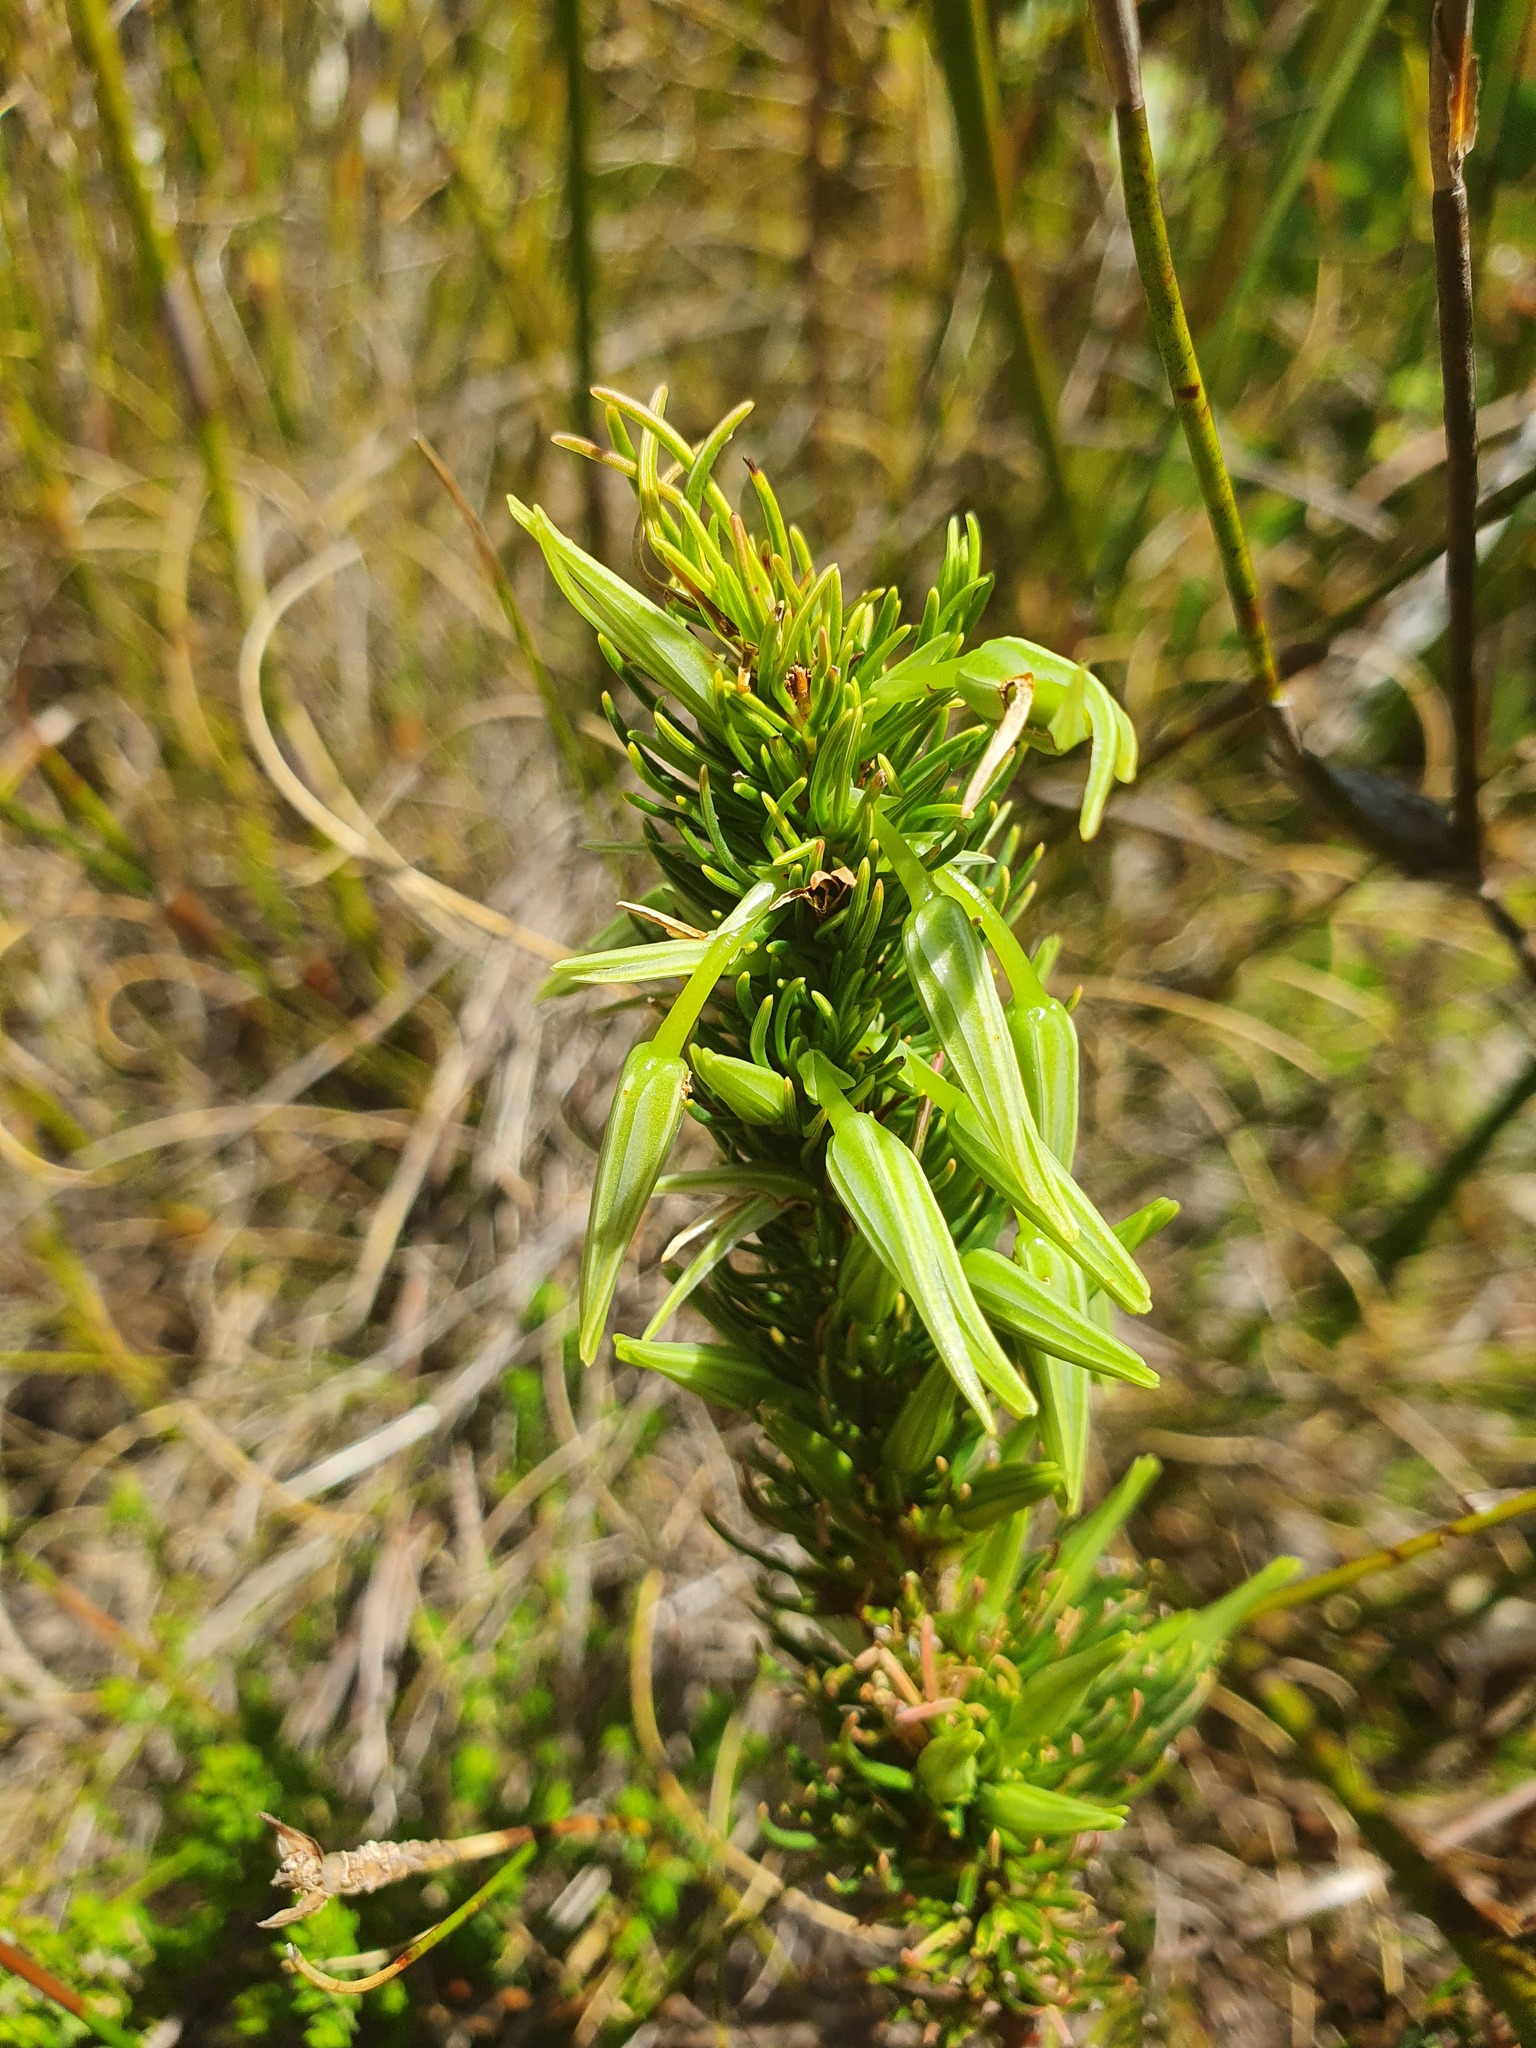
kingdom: Plantae
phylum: Tracheophyta
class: Magnoliopsida
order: Ericales
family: Ericaceae
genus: Erica
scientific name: Erica plukenetii
